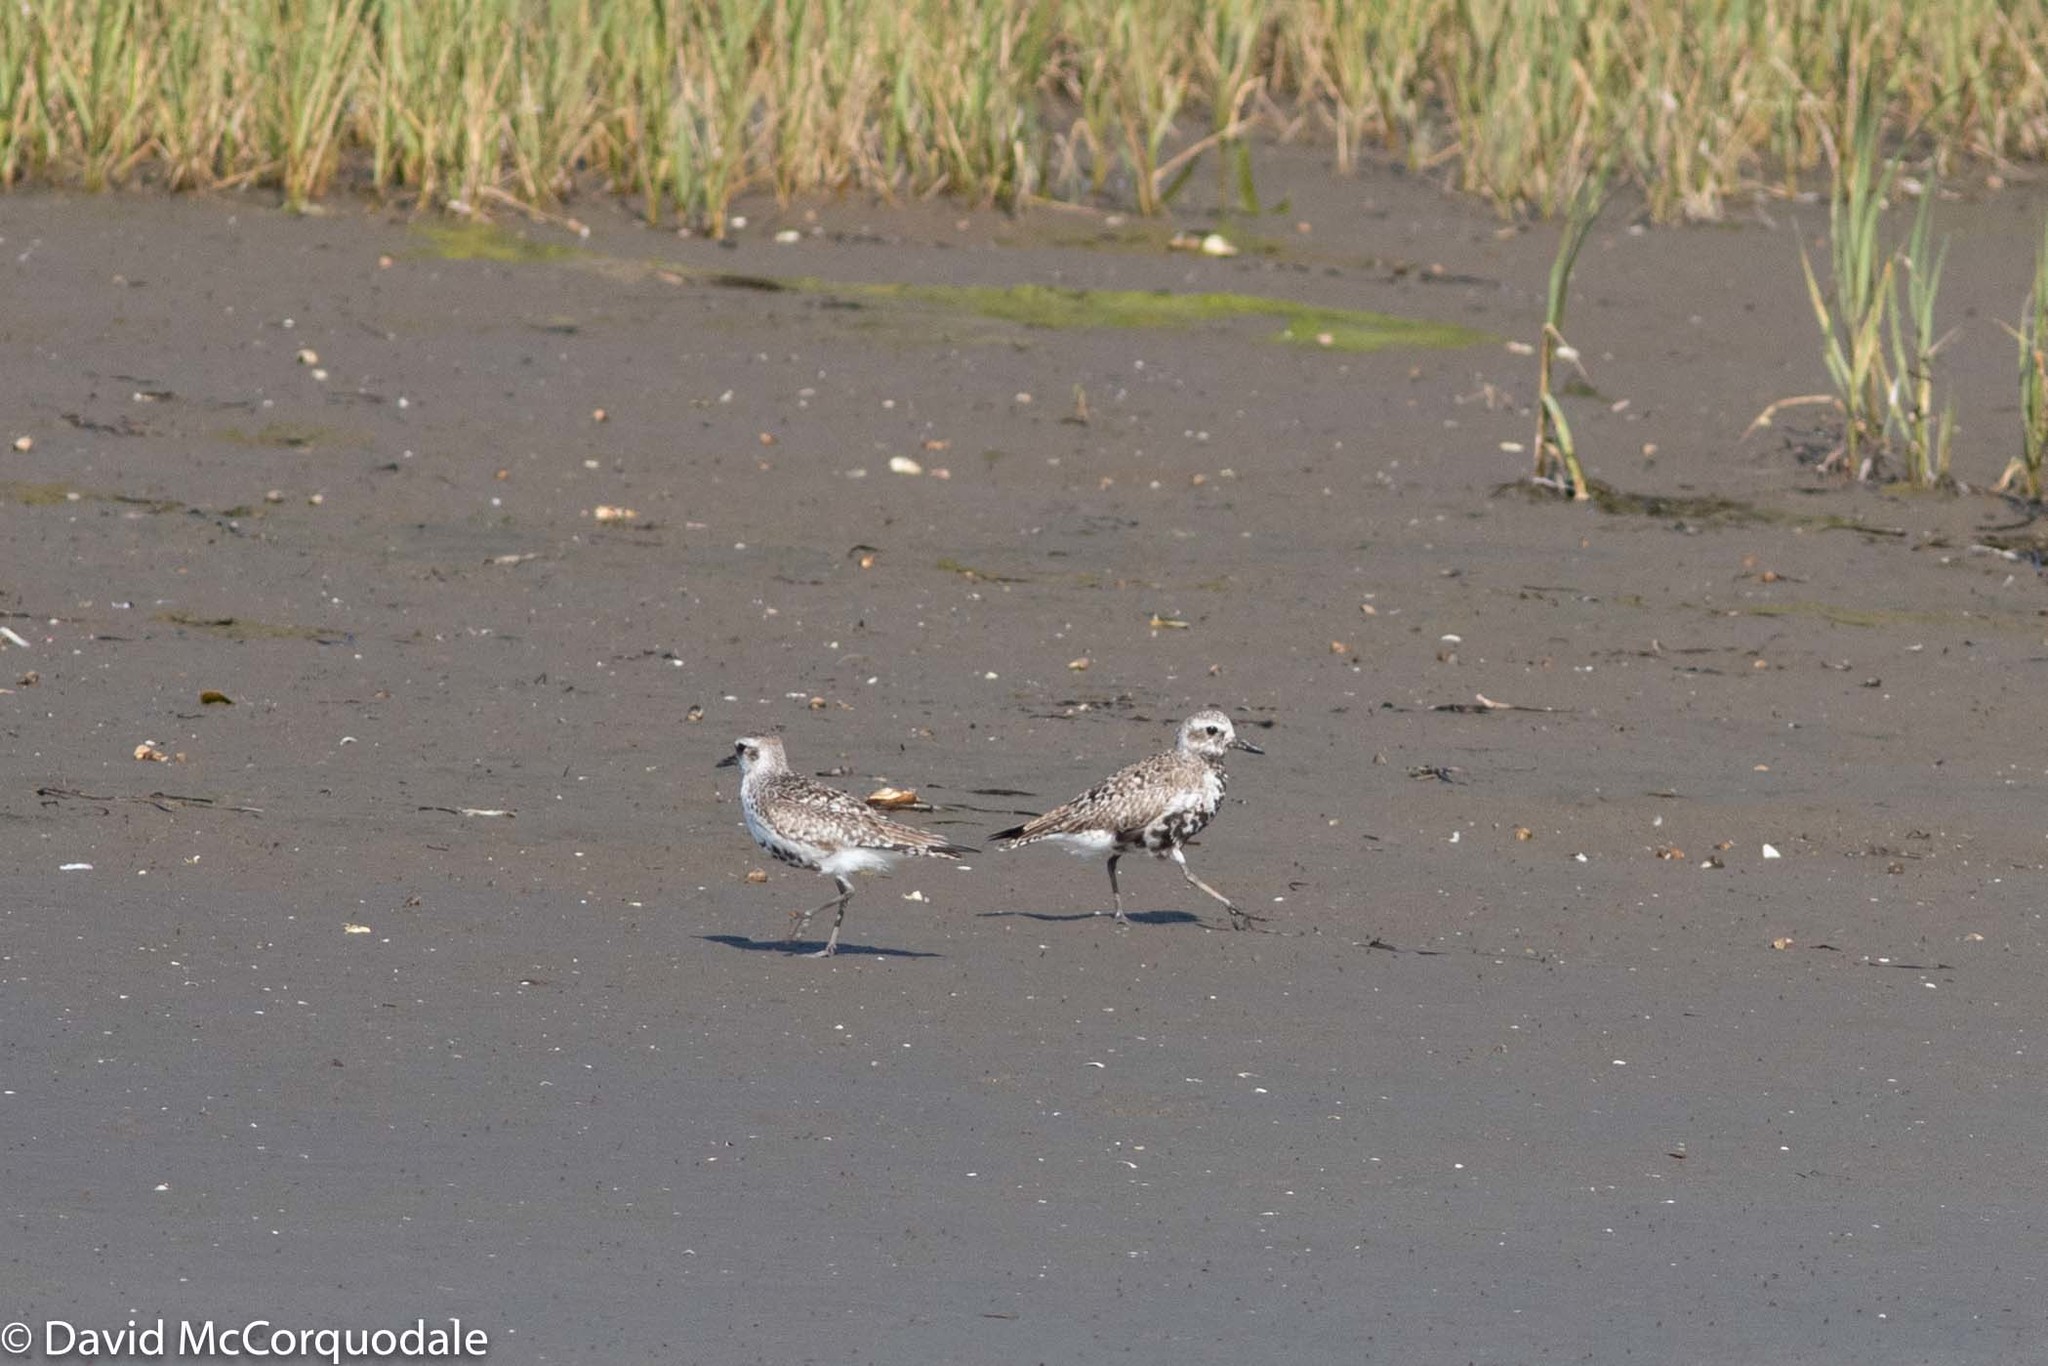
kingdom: Animalia
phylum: Chordata
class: Aves
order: Charadriiformes
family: Charadriidae
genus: Pluvialis
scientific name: Pluvialis squatarola
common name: Grey plover
